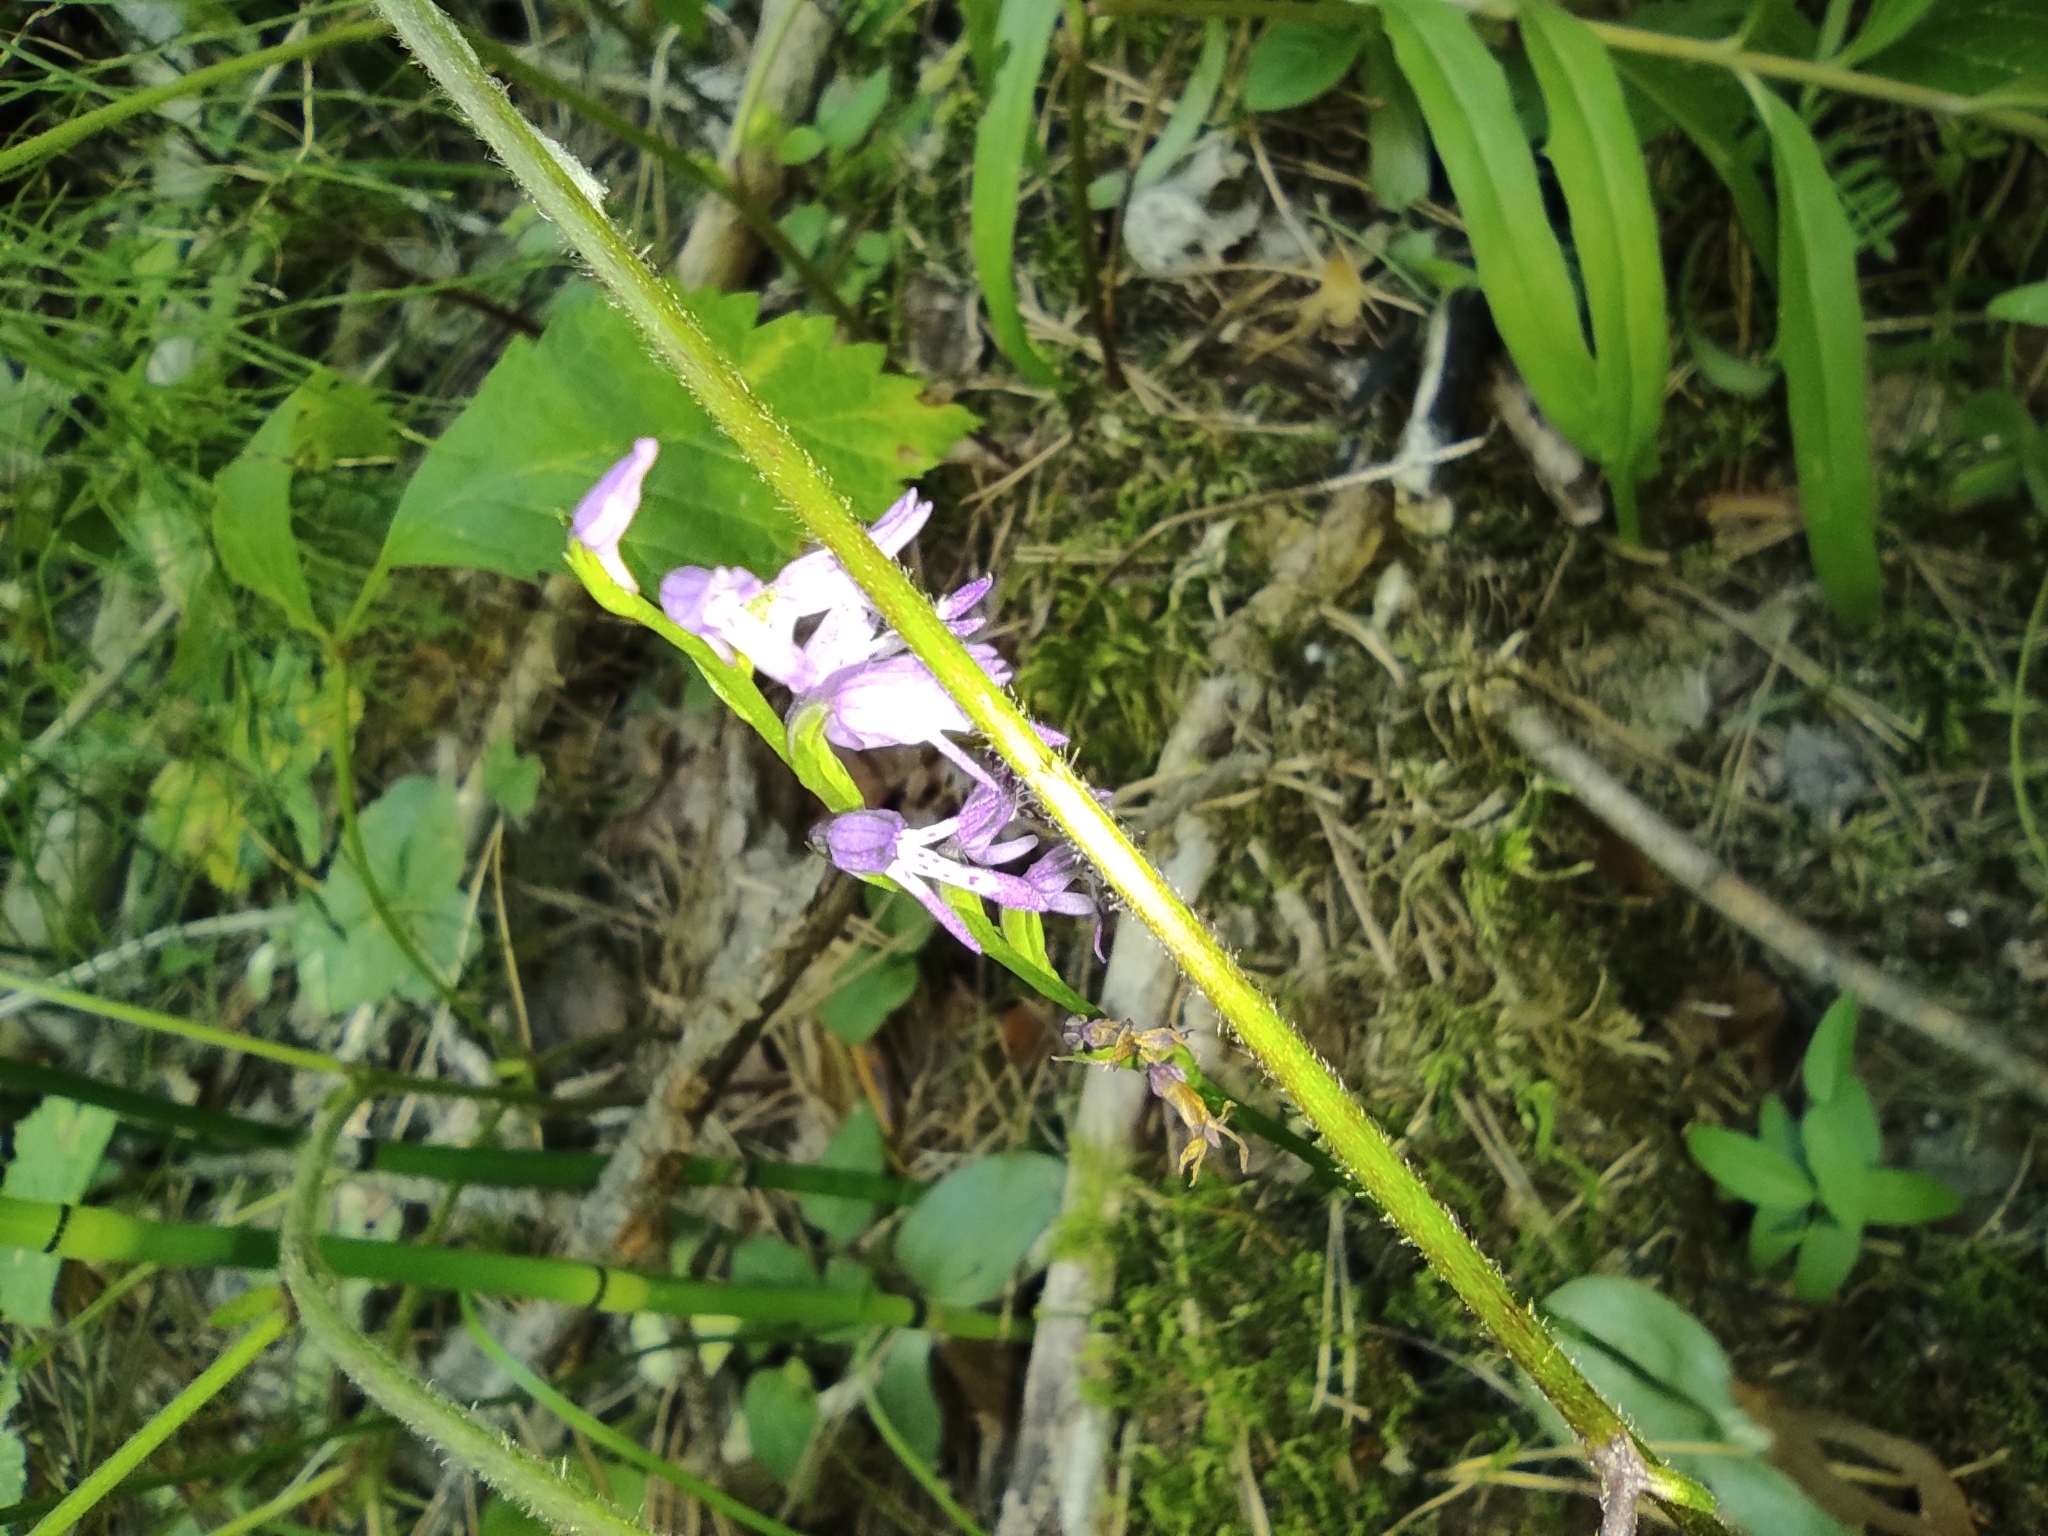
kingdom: Plantae
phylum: Tracheophyta
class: Liliopsida
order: Asparagales
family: Orchidaceae
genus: Hemipilia
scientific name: Hemipilia cucullata
